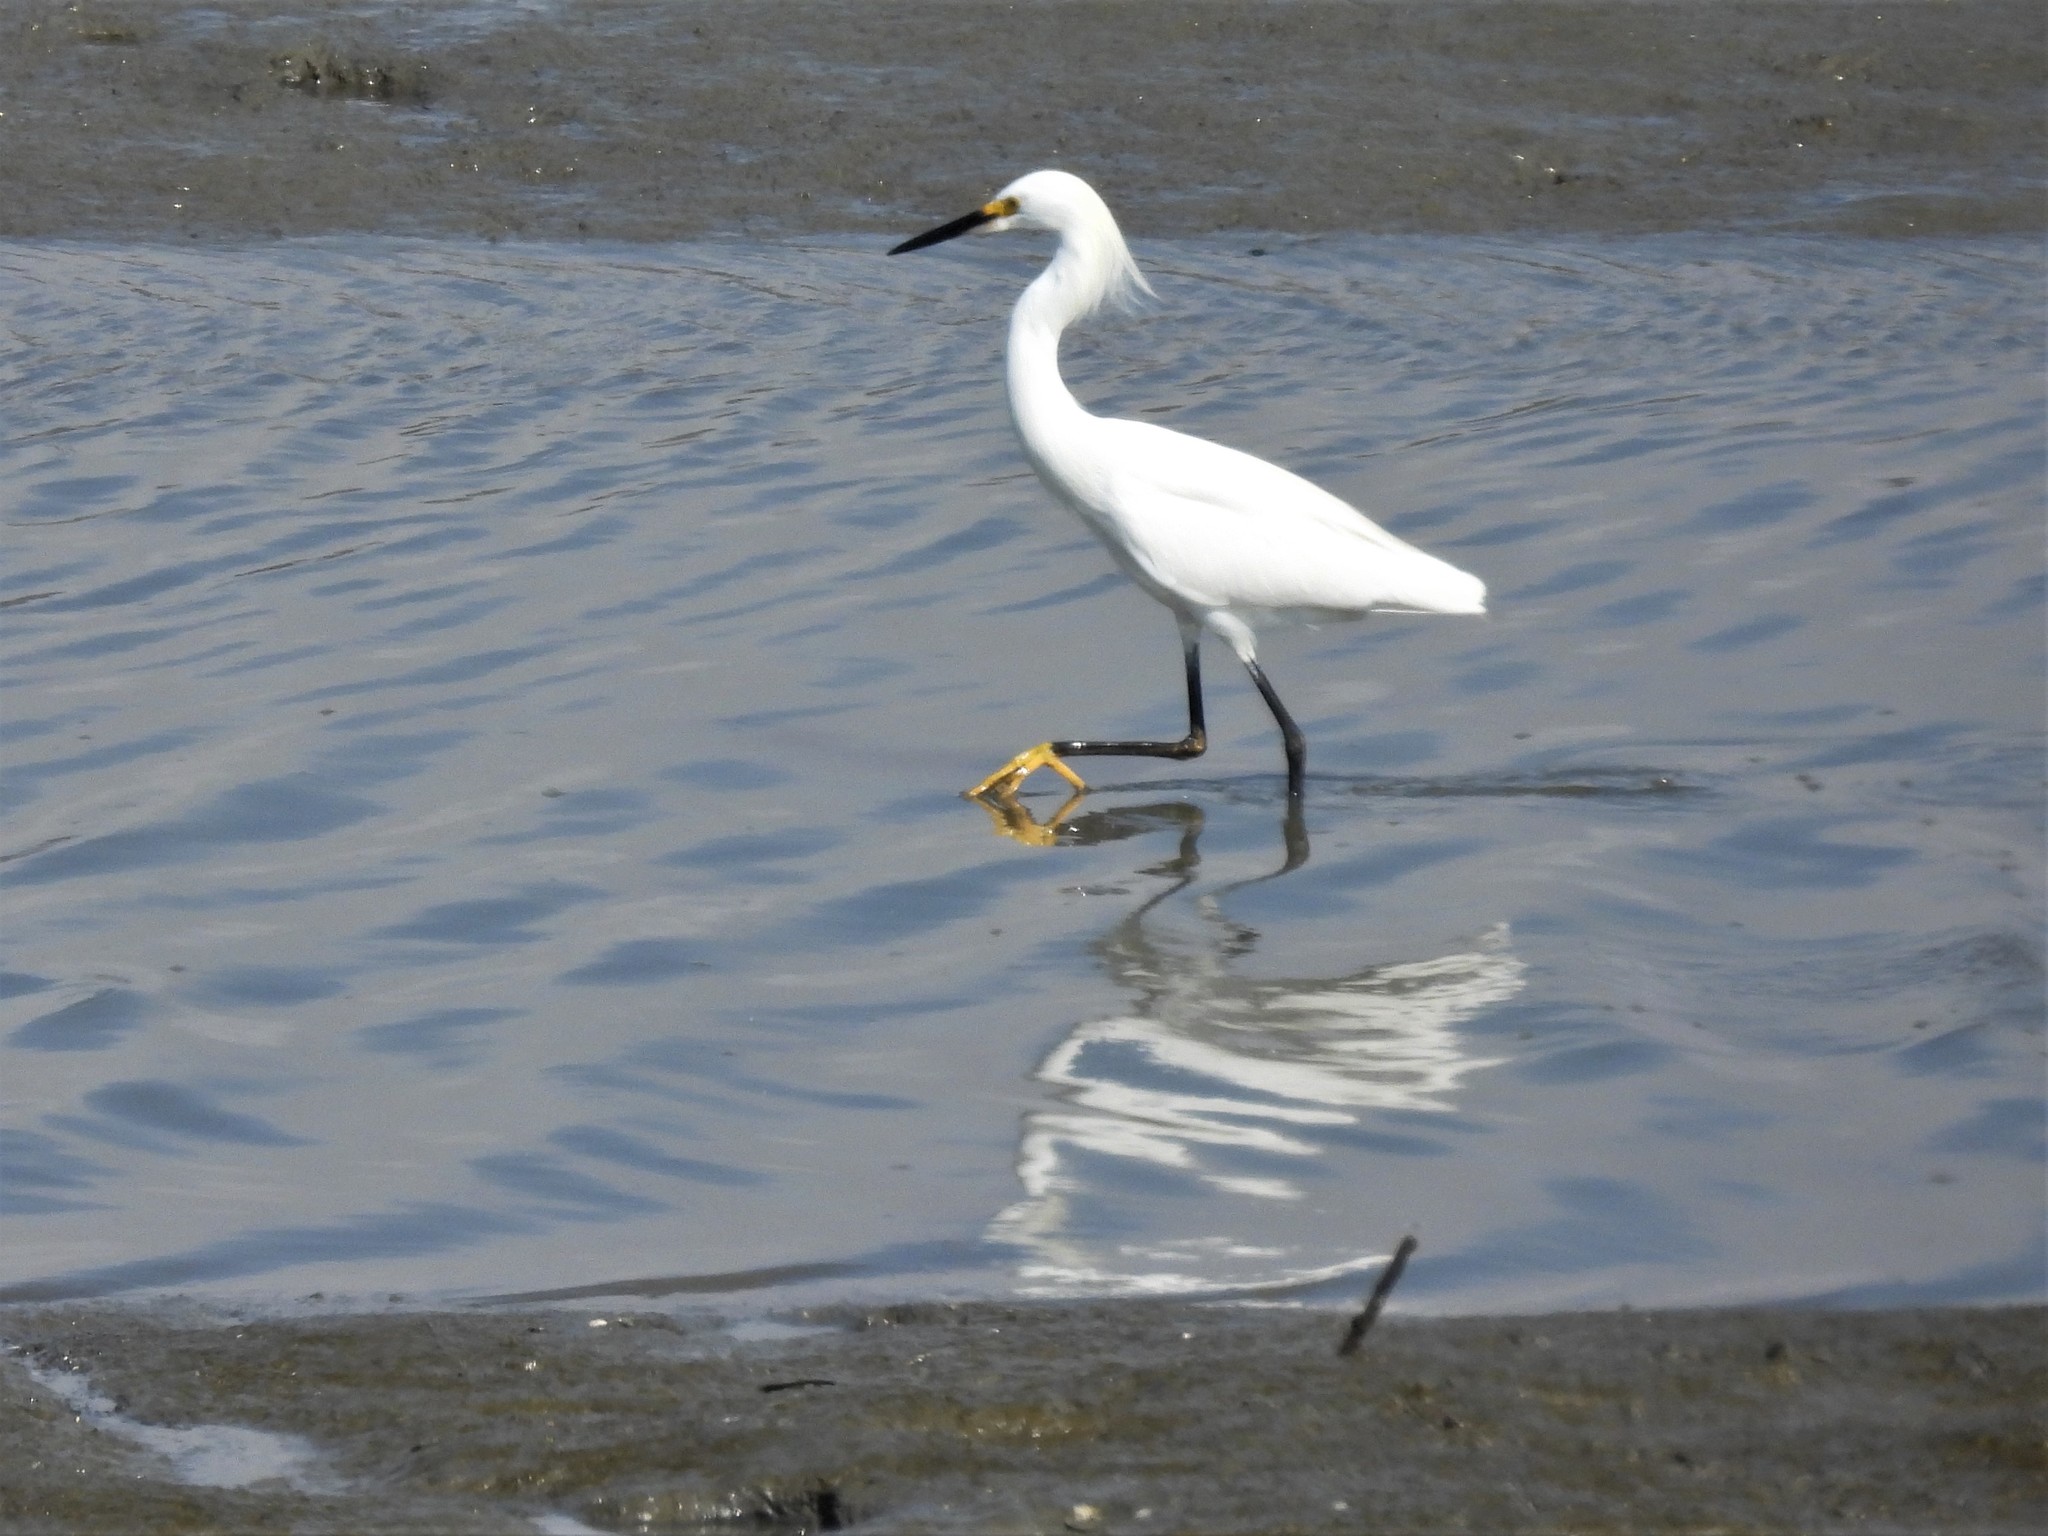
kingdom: Animalia
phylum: Chordata
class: Aves
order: Pelecaniformes
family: Ardeidae
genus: Egretta
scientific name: Egretta thula
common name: Snowy egret
